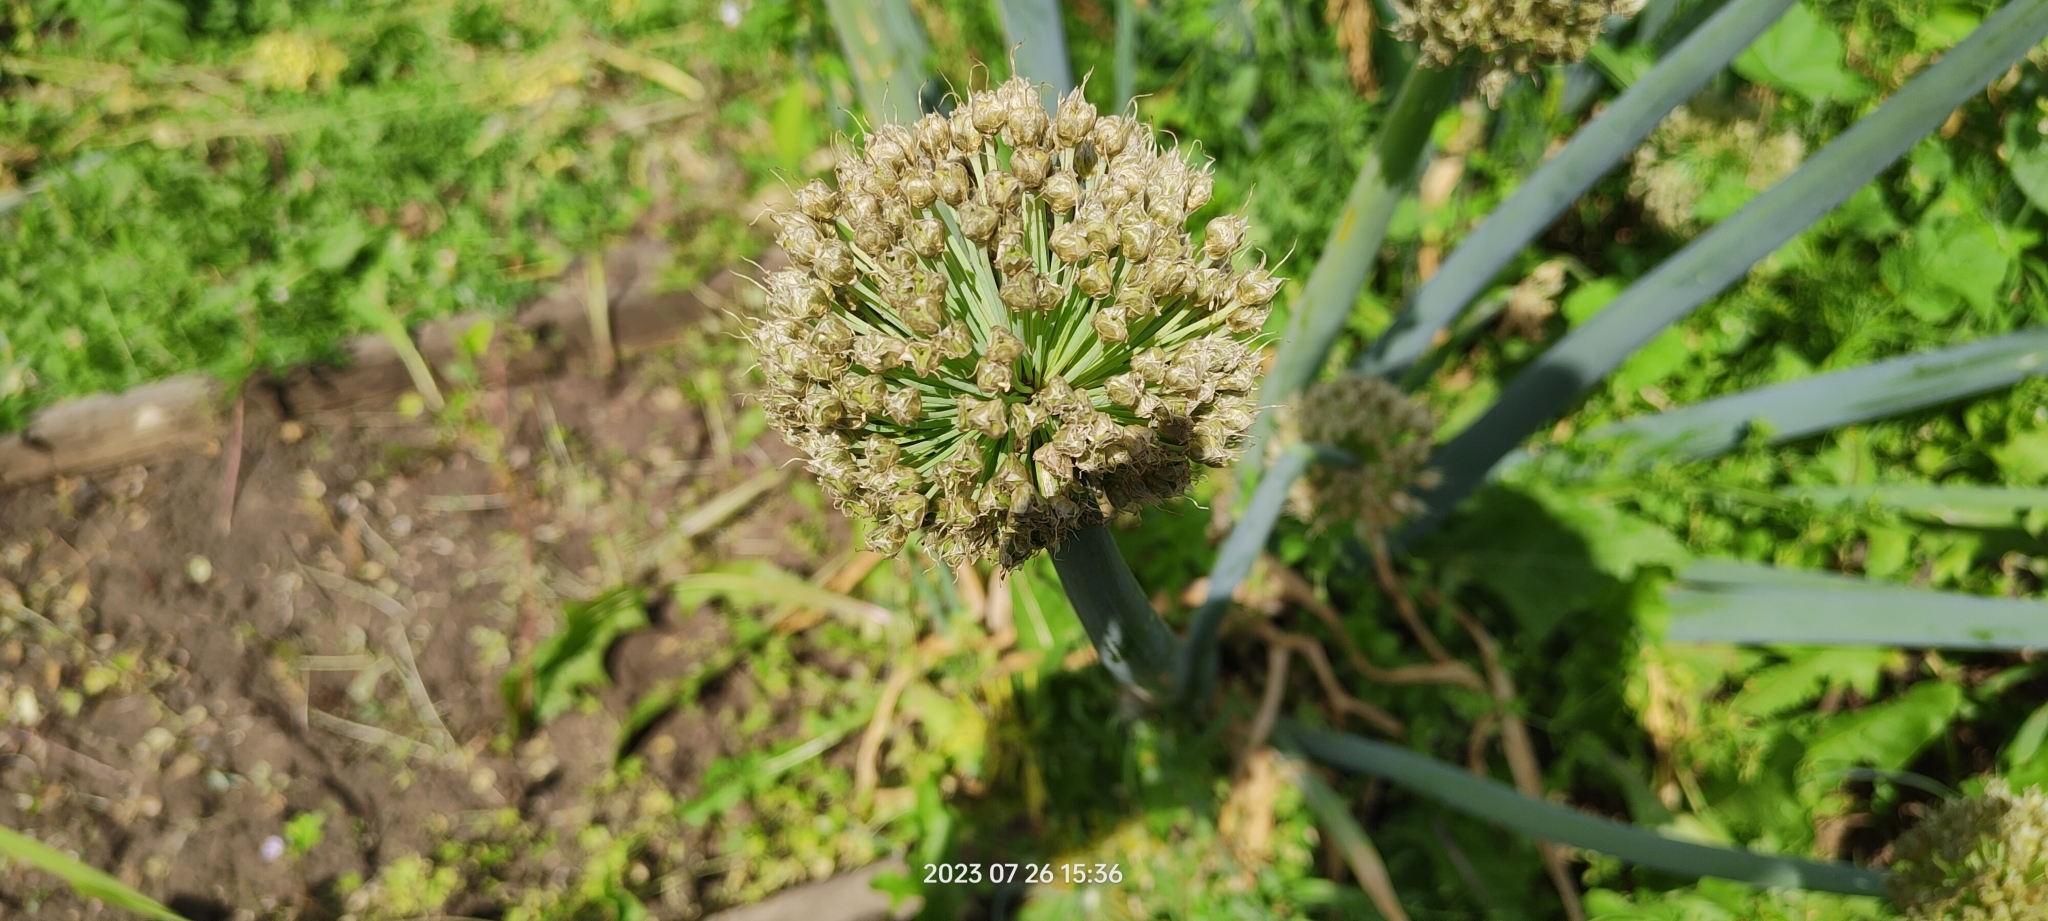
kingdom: Plantae
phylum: Tracheophyta
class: Liliopsida
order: Asparagales
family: Amaryllidaceae
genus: Allium
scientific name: Allium fistulosum
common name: Welsh onion
